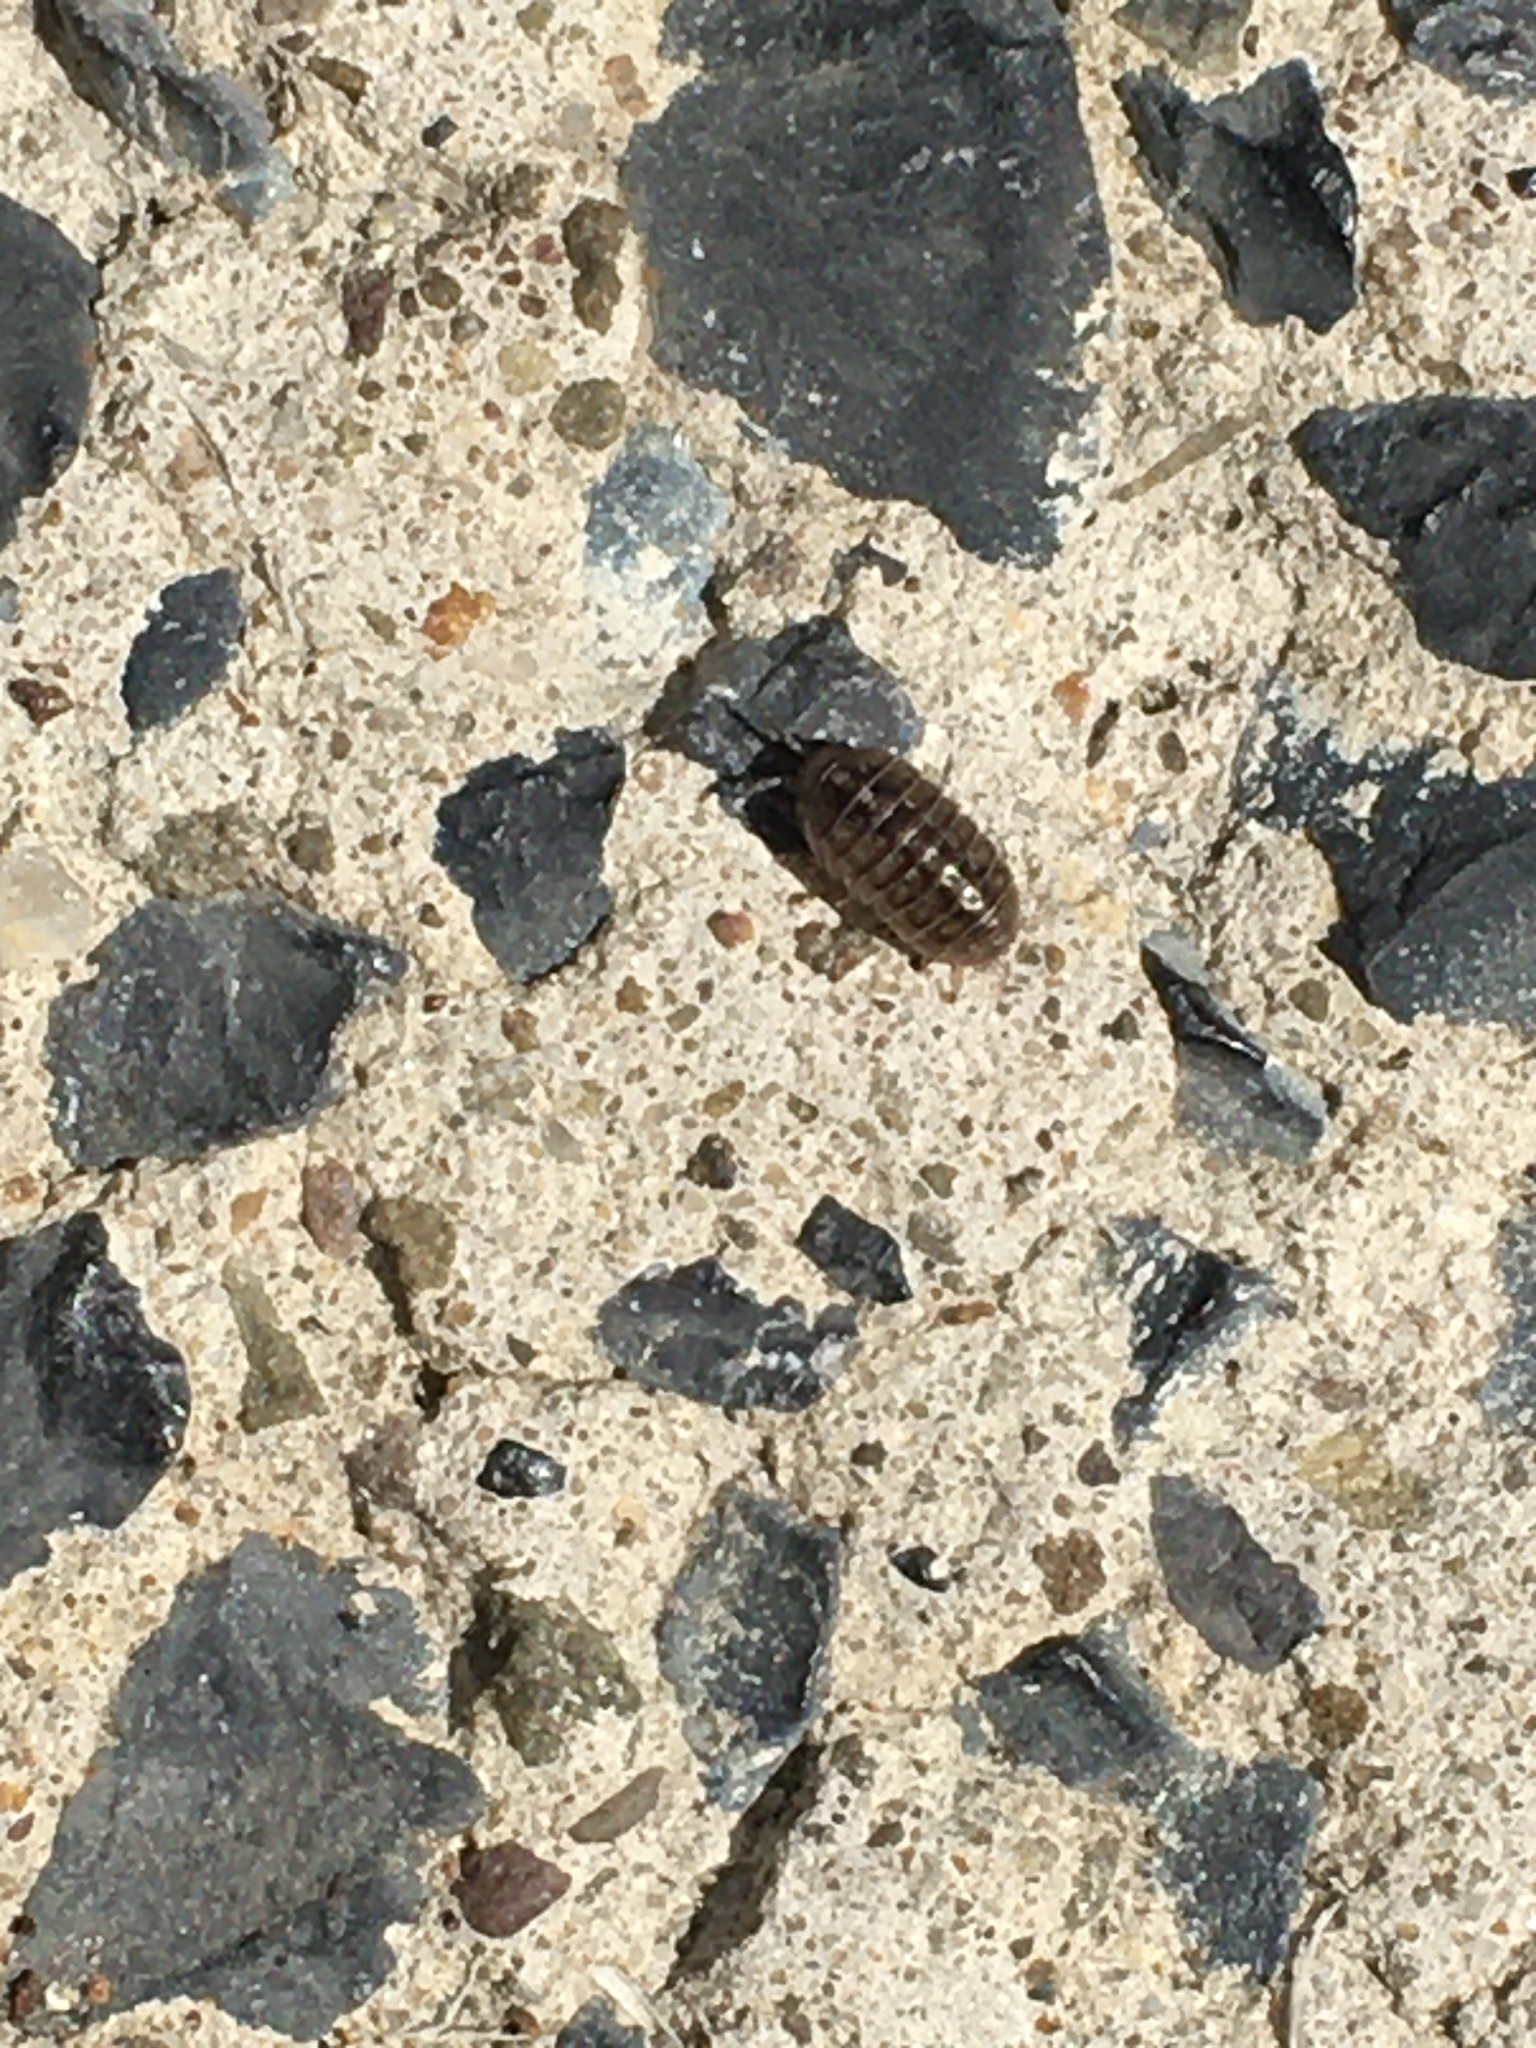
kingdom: Animalia
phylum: Arthropoda
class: Malacostraca
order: Isopoda
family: Armadillidiidae
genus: Armadillidium
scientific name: Armadillidium vulgare
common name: Common pill woodlouse
